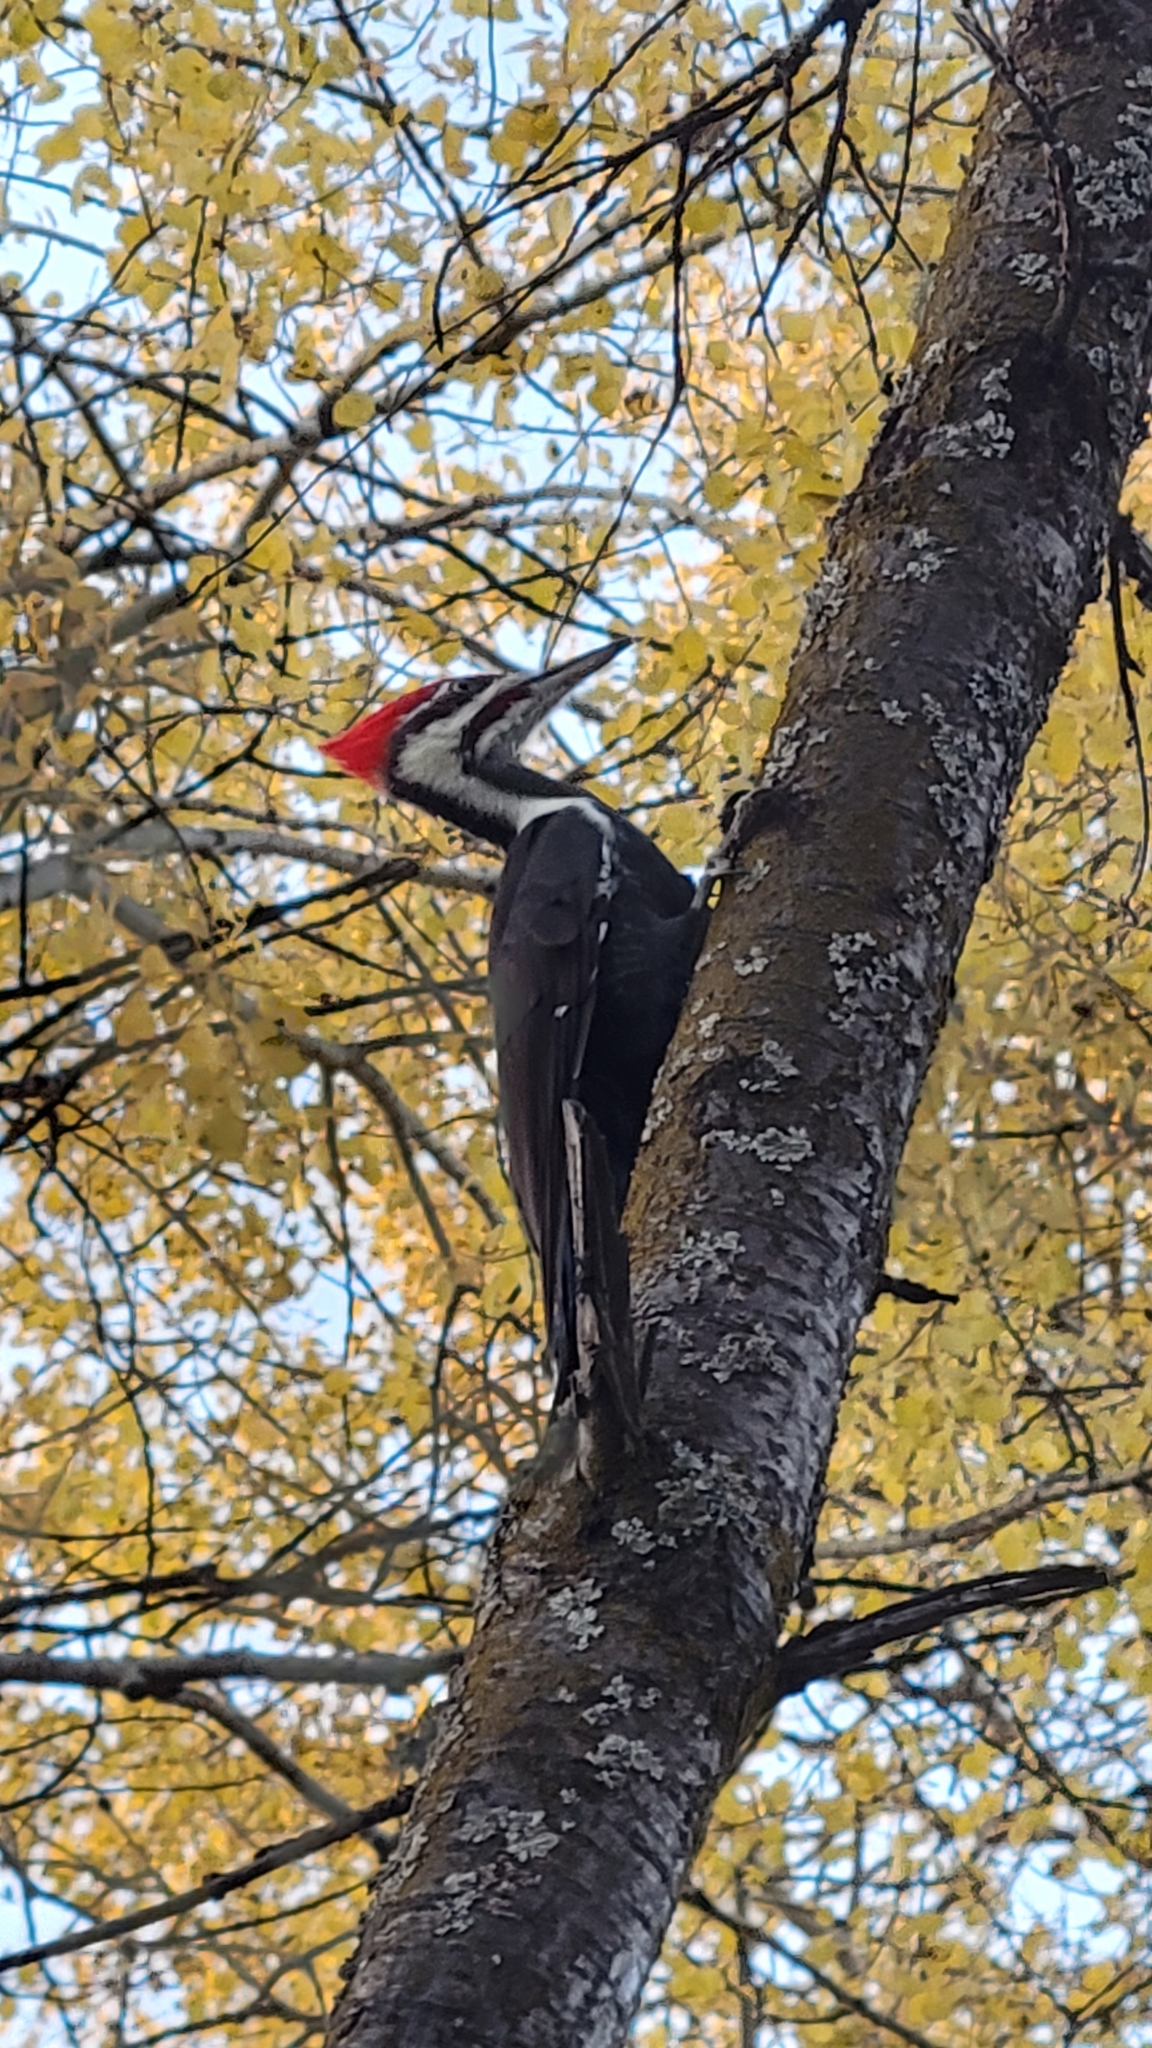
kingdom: Animalia
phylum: Chordata
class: Aves
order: Piciformes
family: Picidae
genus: Dryocopus
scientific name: Dryocopus pileatus
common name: Pileated woodpecker
